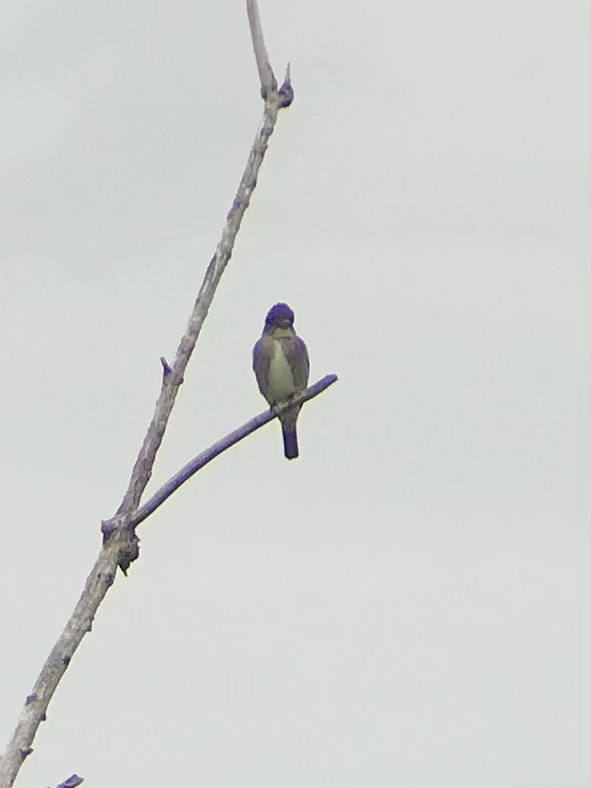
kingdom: Animalia
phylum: Chordata
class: Aves
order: Passeriformes
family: Tyrannidae
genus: Contopus
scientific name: Contopus cooperi
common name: Olive-sided flycatcher
